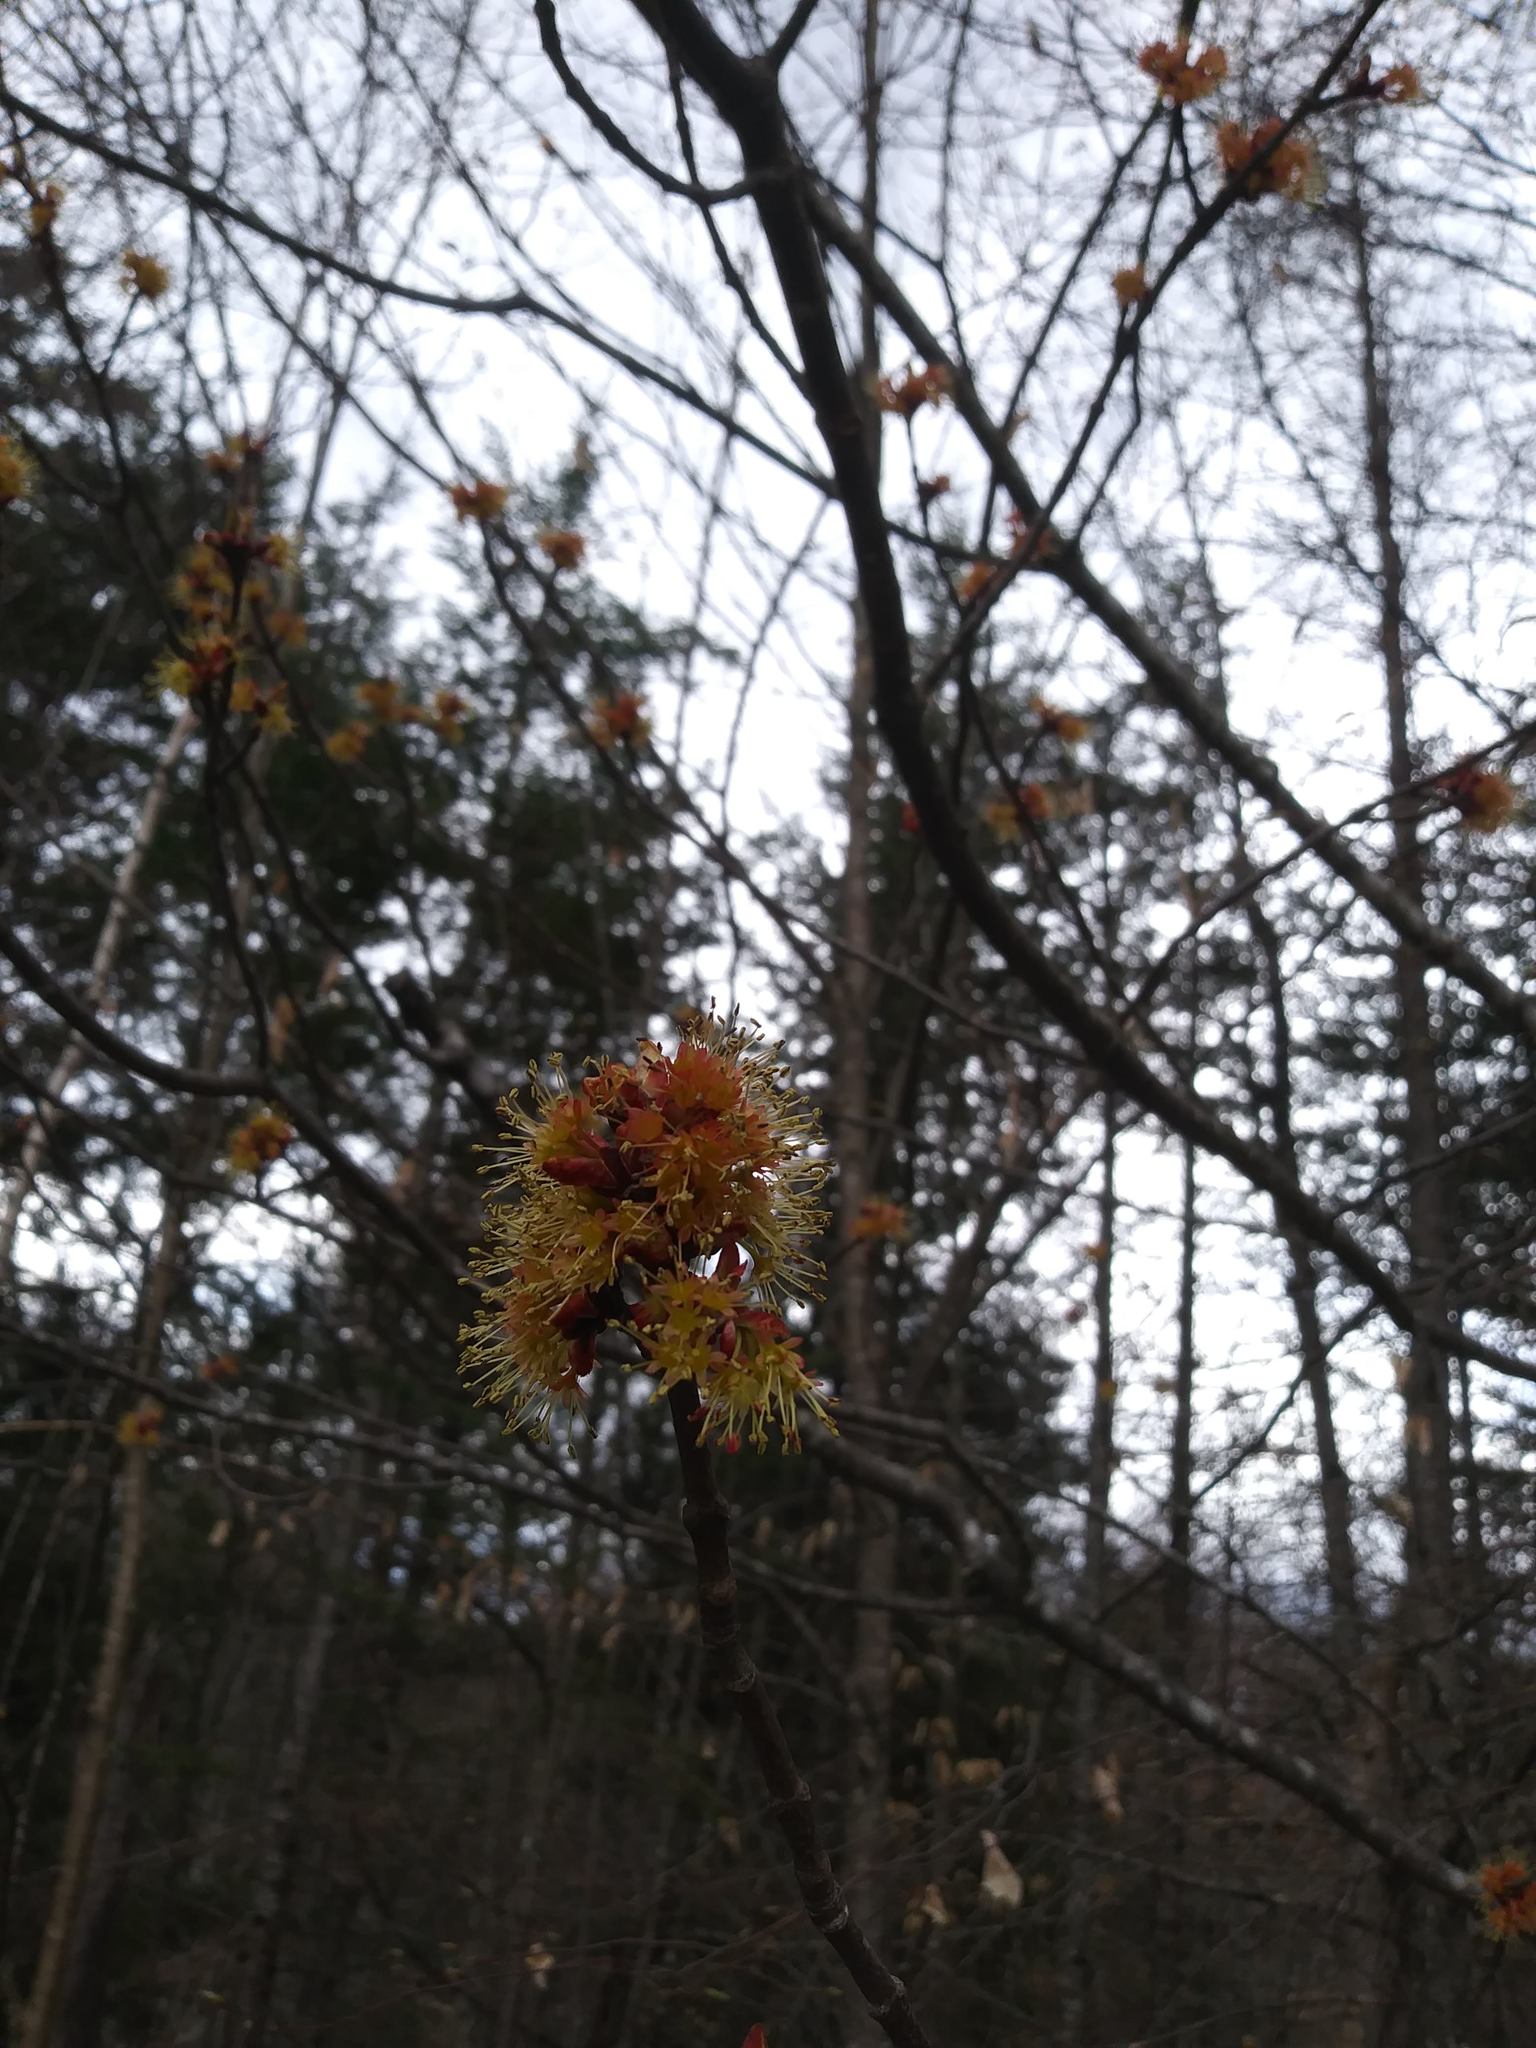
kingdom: Plantae
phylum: Tracheophyta
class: Magnoliopsida
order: Sapindales
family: Sapindaceae
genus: Acer
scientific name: Acer rubrum
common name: Red maple
